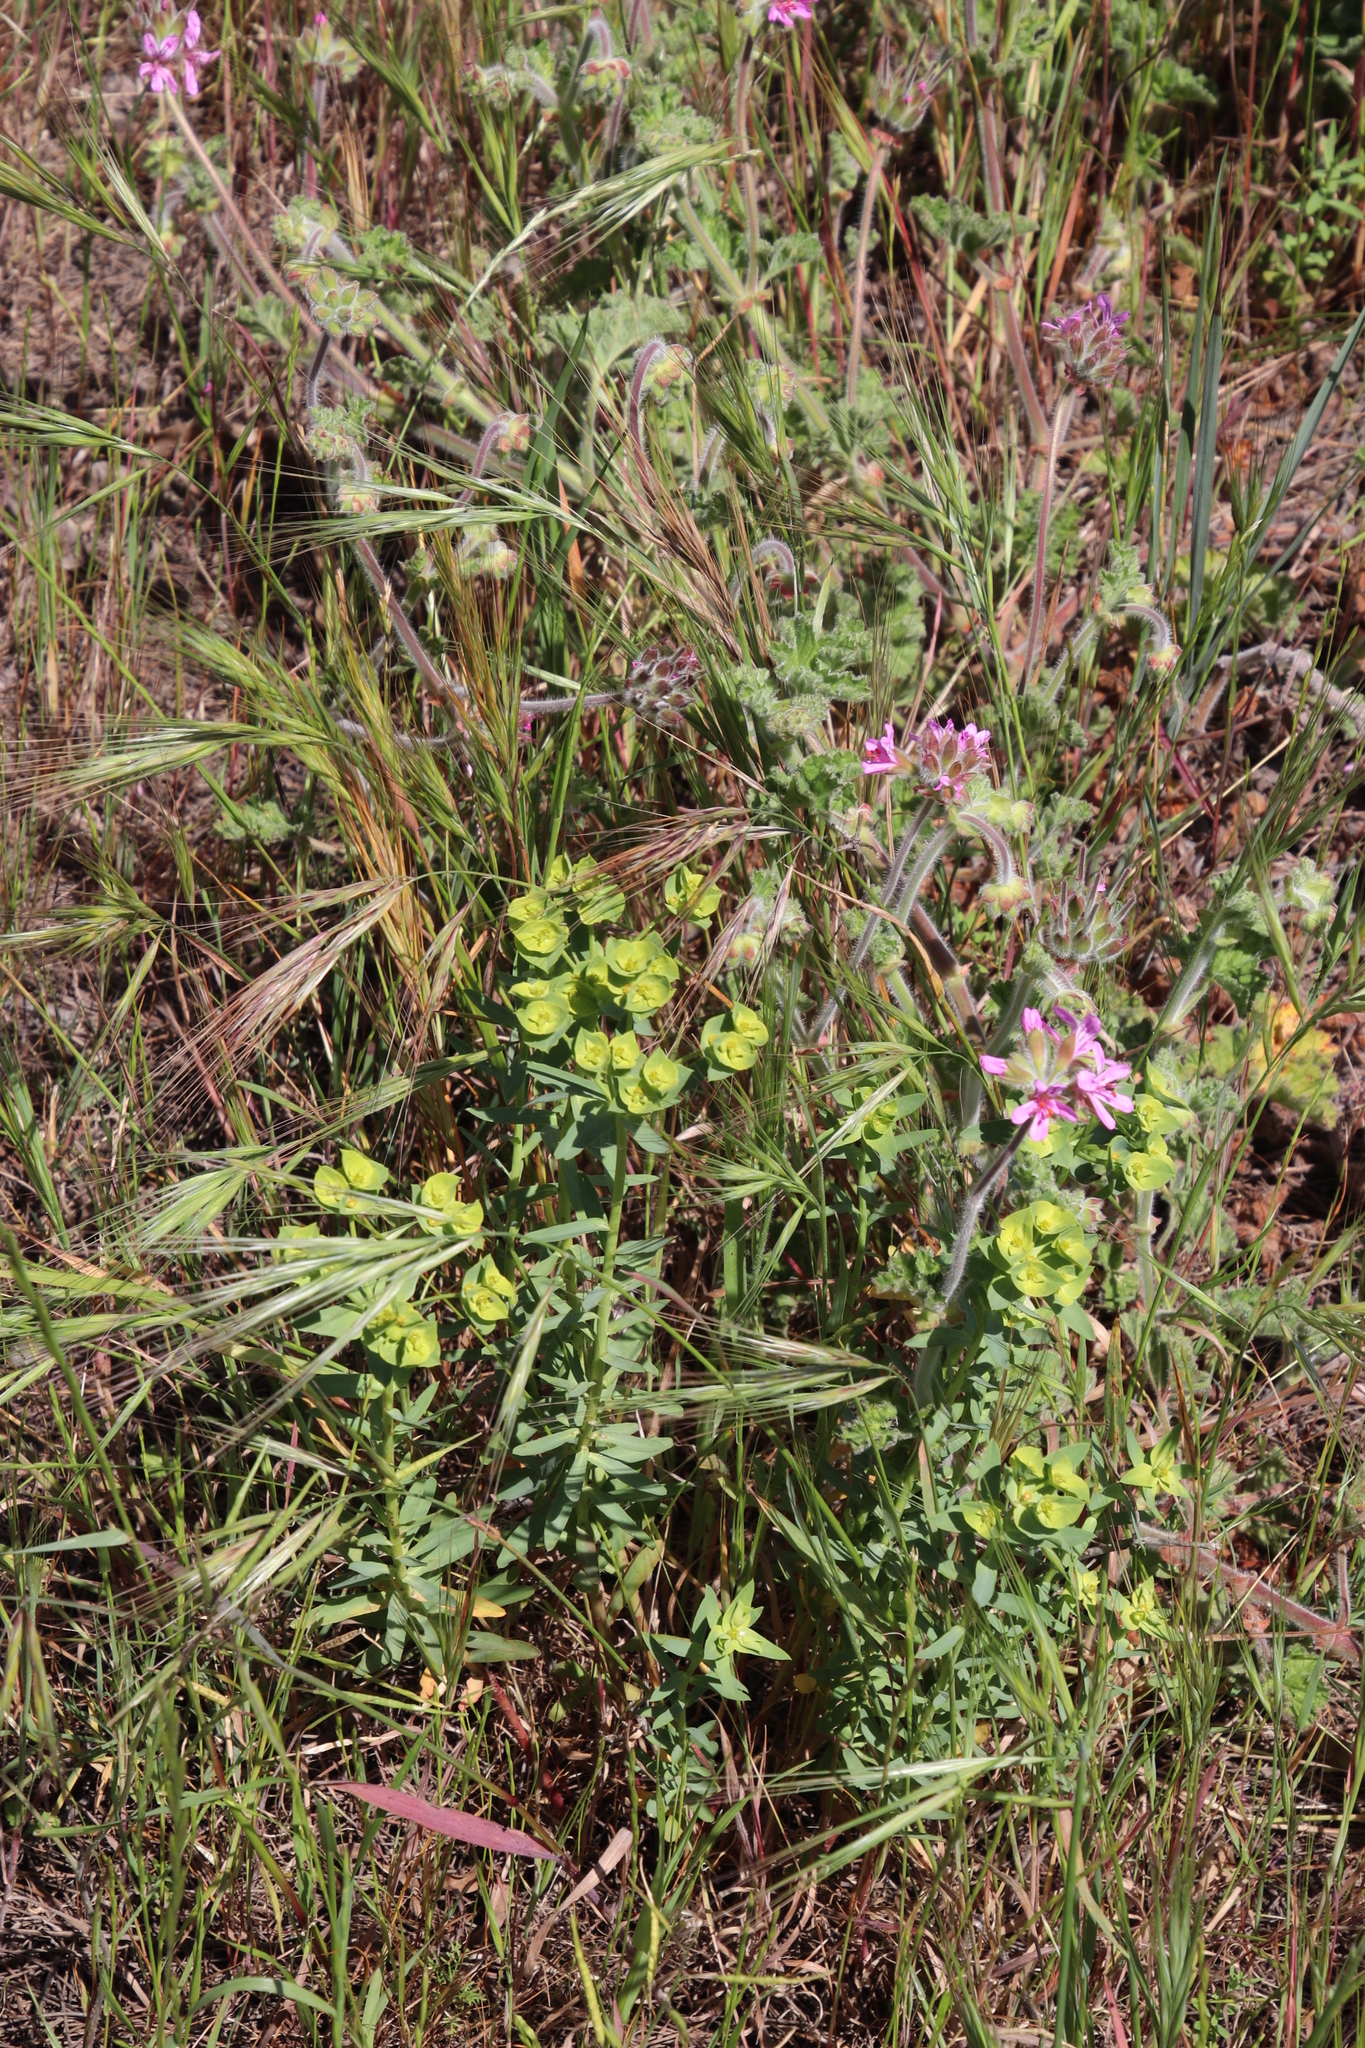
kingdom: Plantae
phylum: Tracheophyta
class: Magnoliopsida
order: Malpighiales
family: Euphorbiaceae
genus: Euphorbia
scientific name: Euphorbia terracina
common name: Geraldton carnation weed
